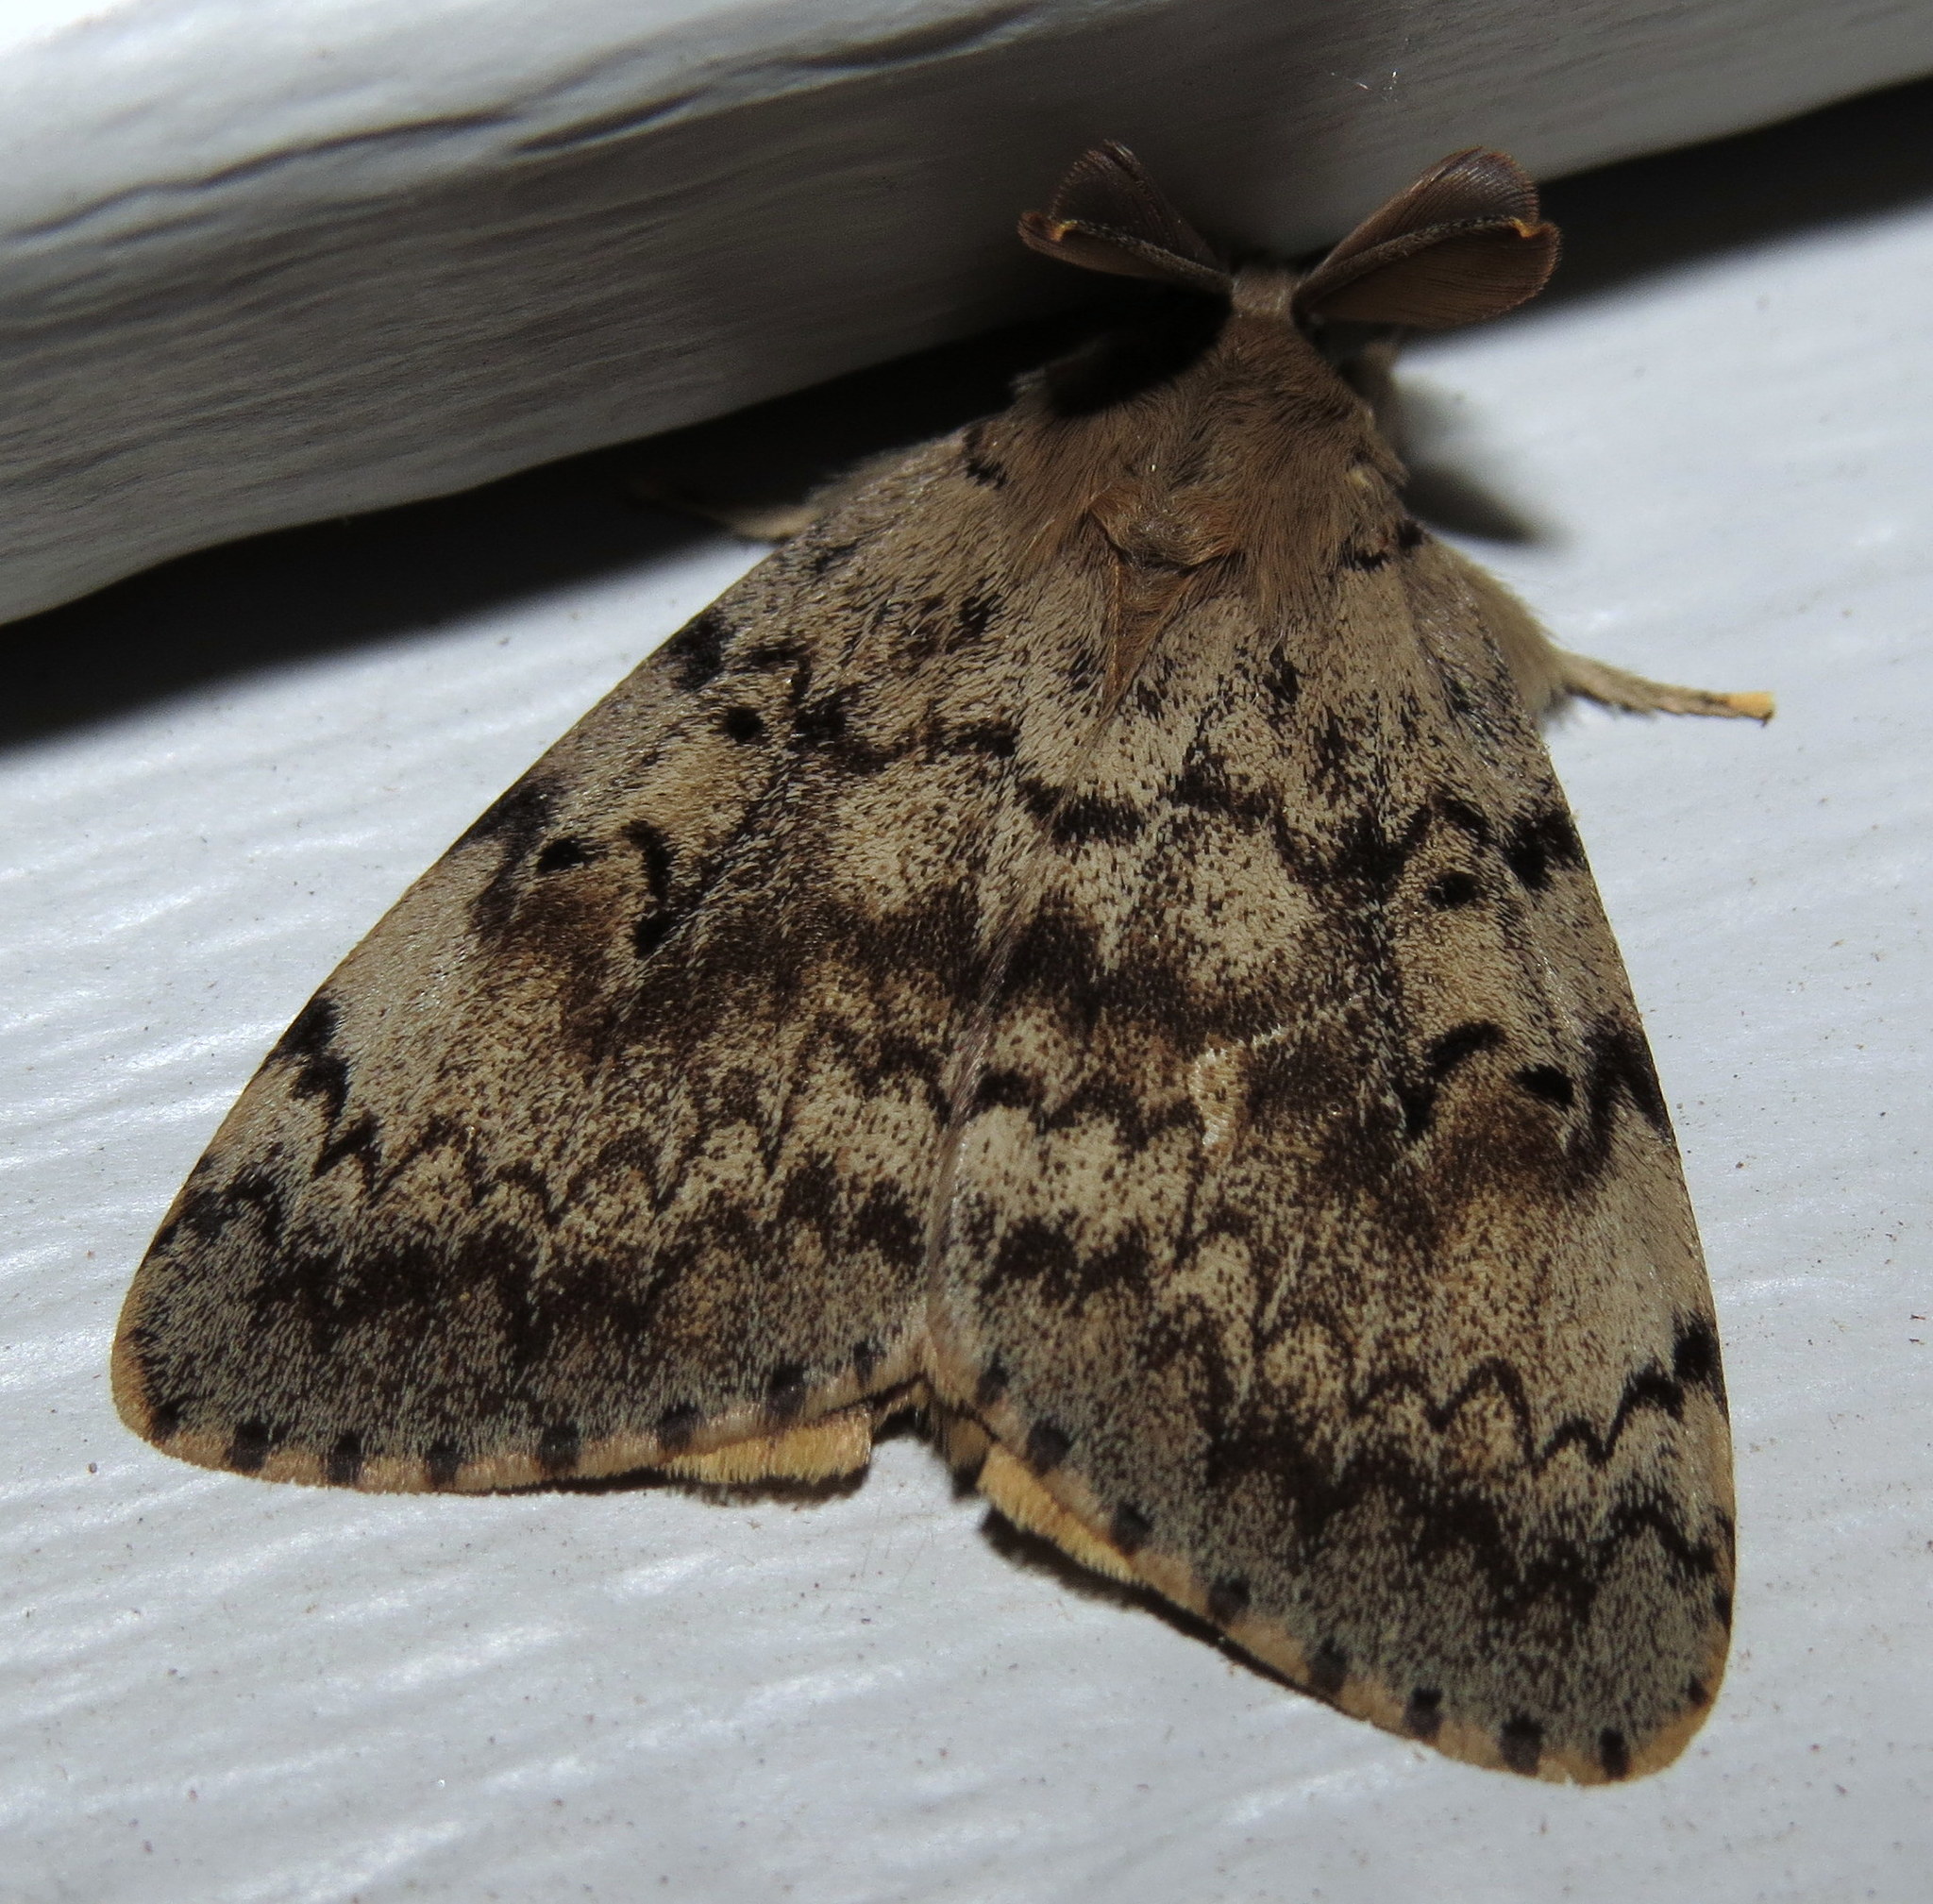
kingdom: Animalia
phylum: Arthropoda
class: Insecta
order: Lepidoptera
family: Erebidae
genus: Lymantria
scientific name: Lymantria dispar
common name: Gypsy moth
